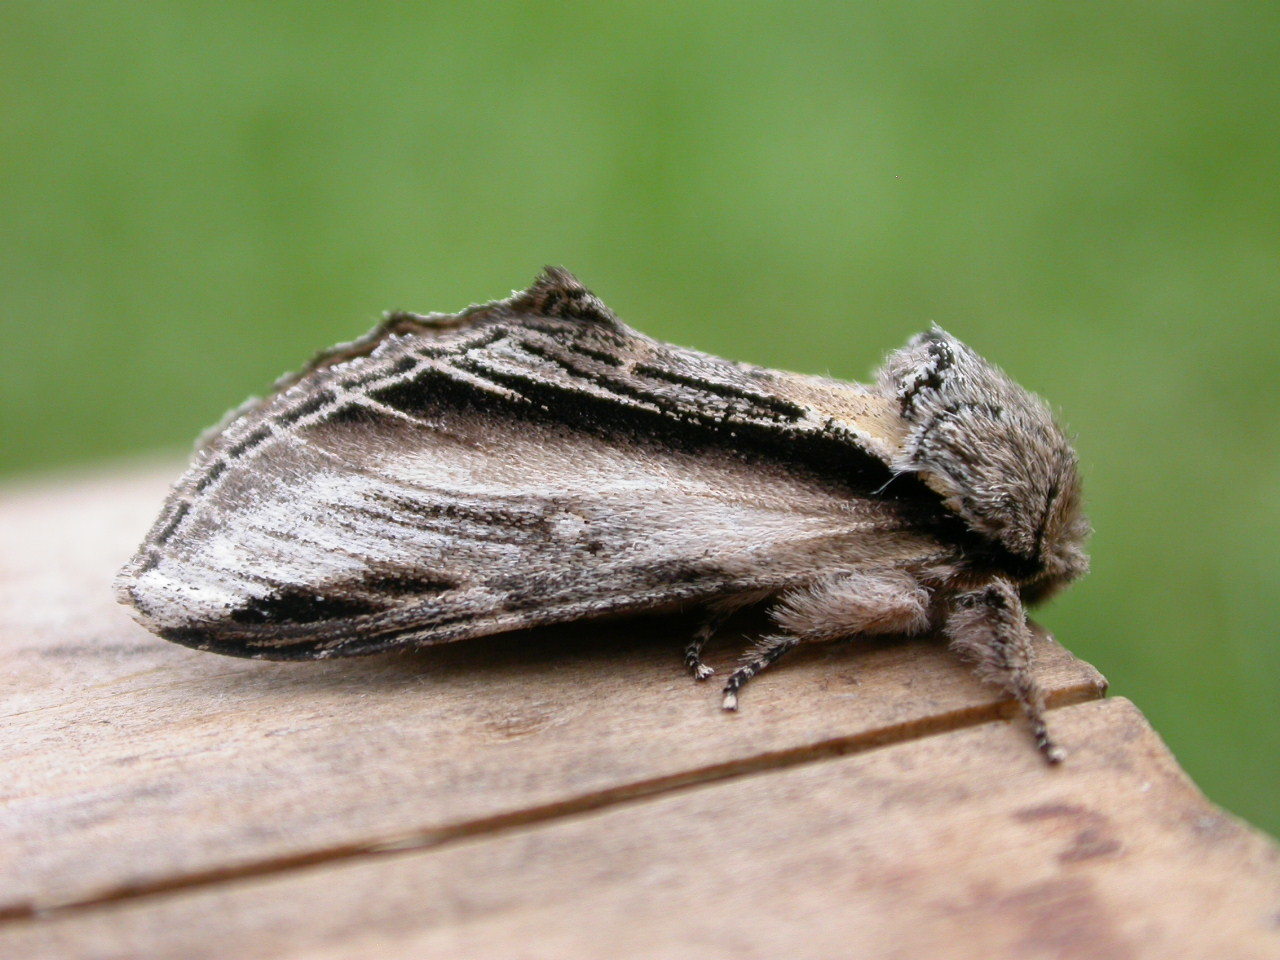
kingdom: Animalia
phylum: Arthropoda
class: Insecta
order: Lepidoptera
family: Notodontidae
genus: Pheosia
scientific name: Pheosia tremula
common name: Swallow prominent
